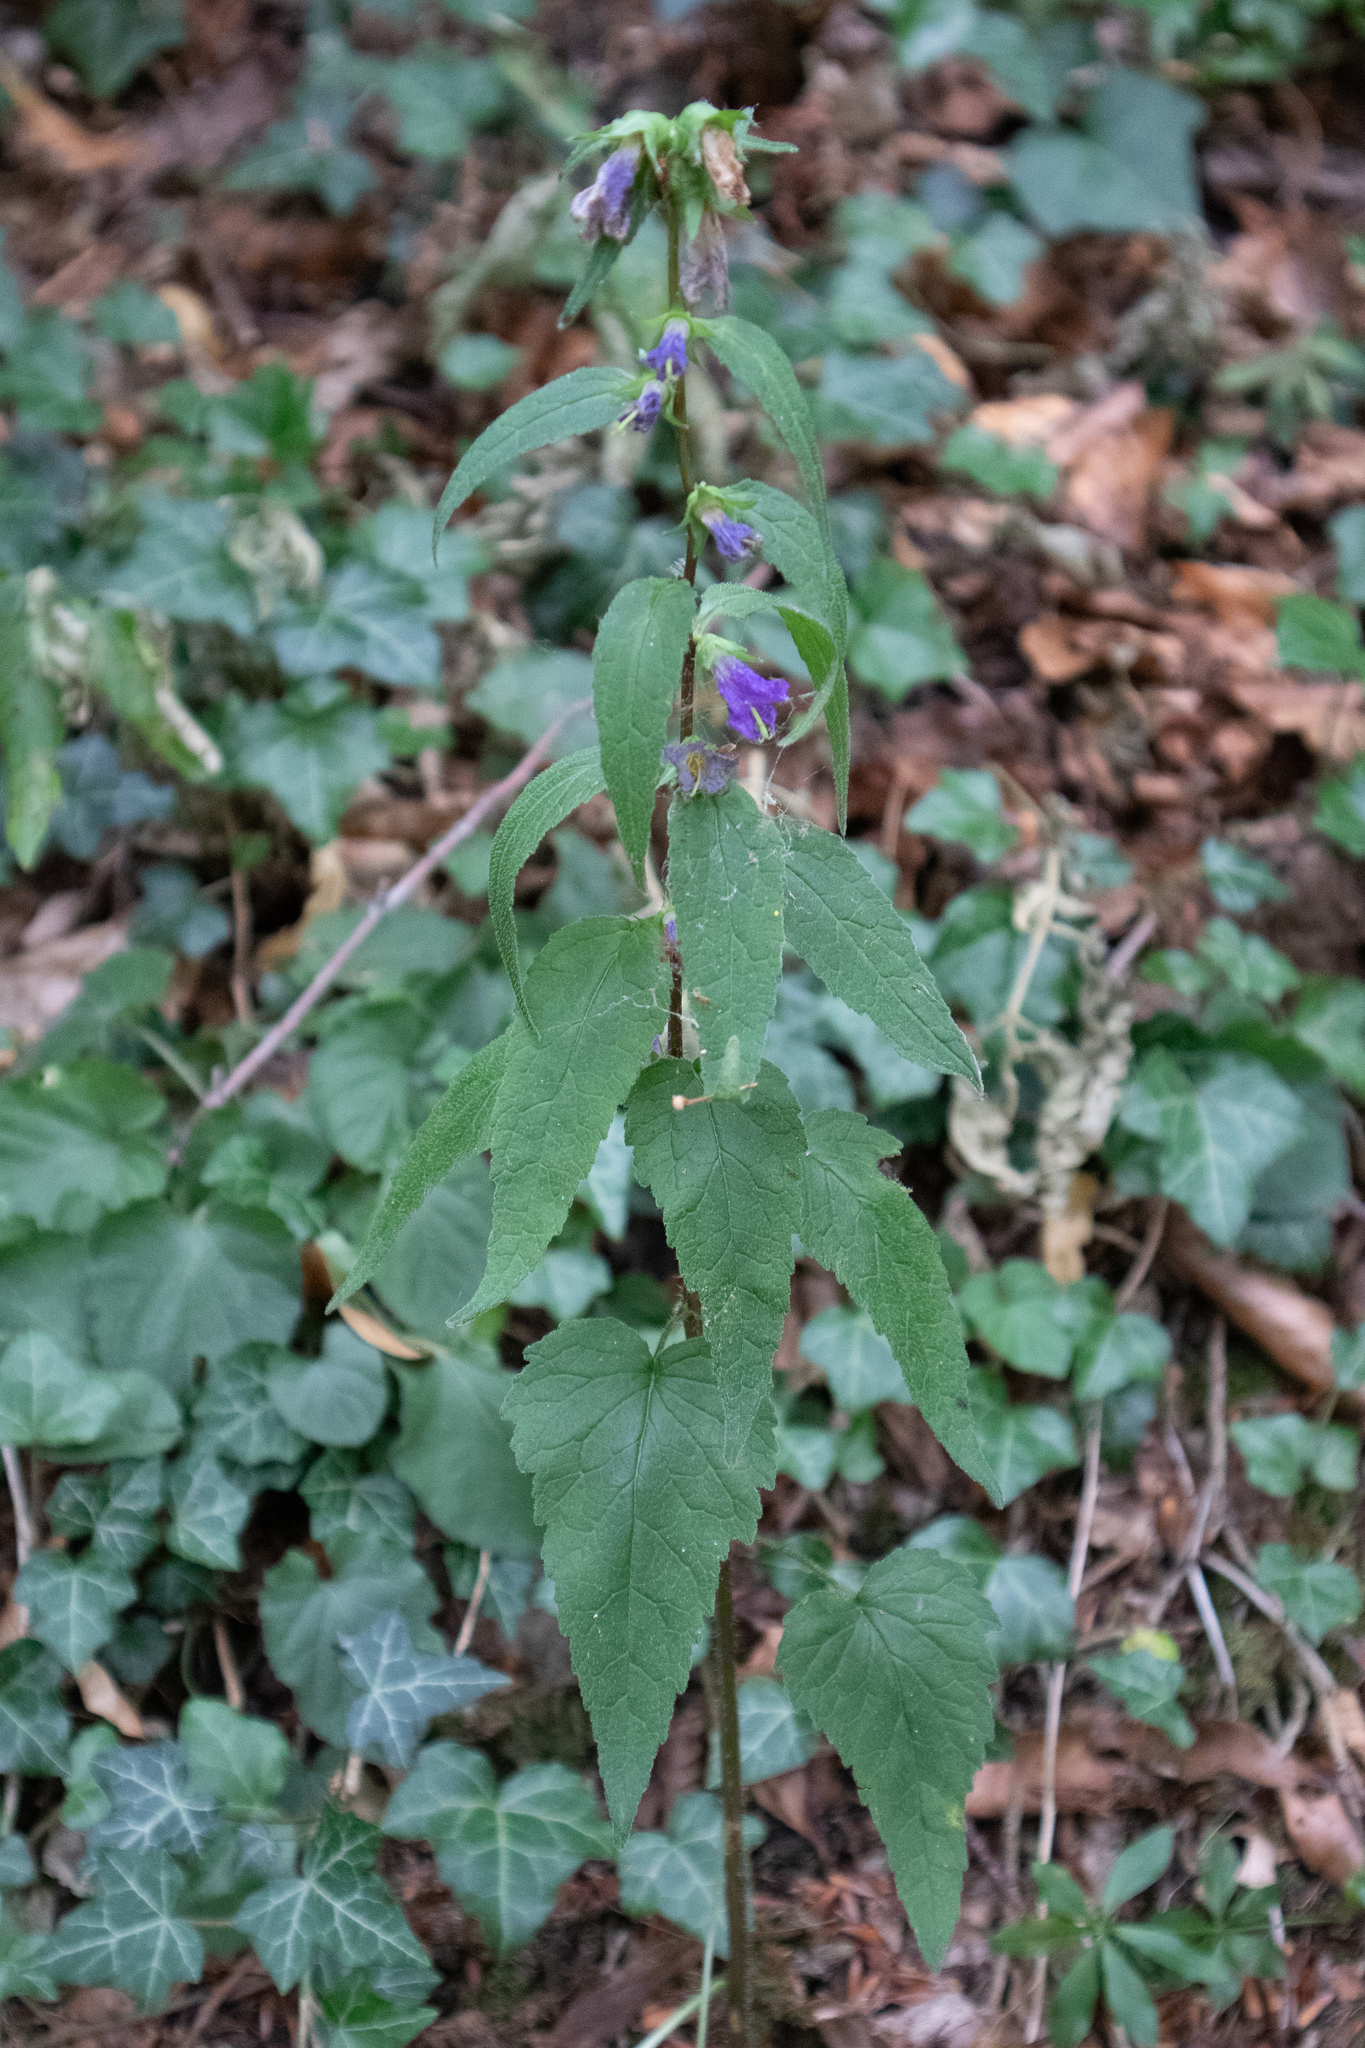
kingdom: Plantae
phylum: Tracheophyta
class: Magnoliopsida
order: Asterales
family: Campanulaceae
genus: Campanula
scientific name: Campanula trachelium
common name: Nettle-leaved bellflower
